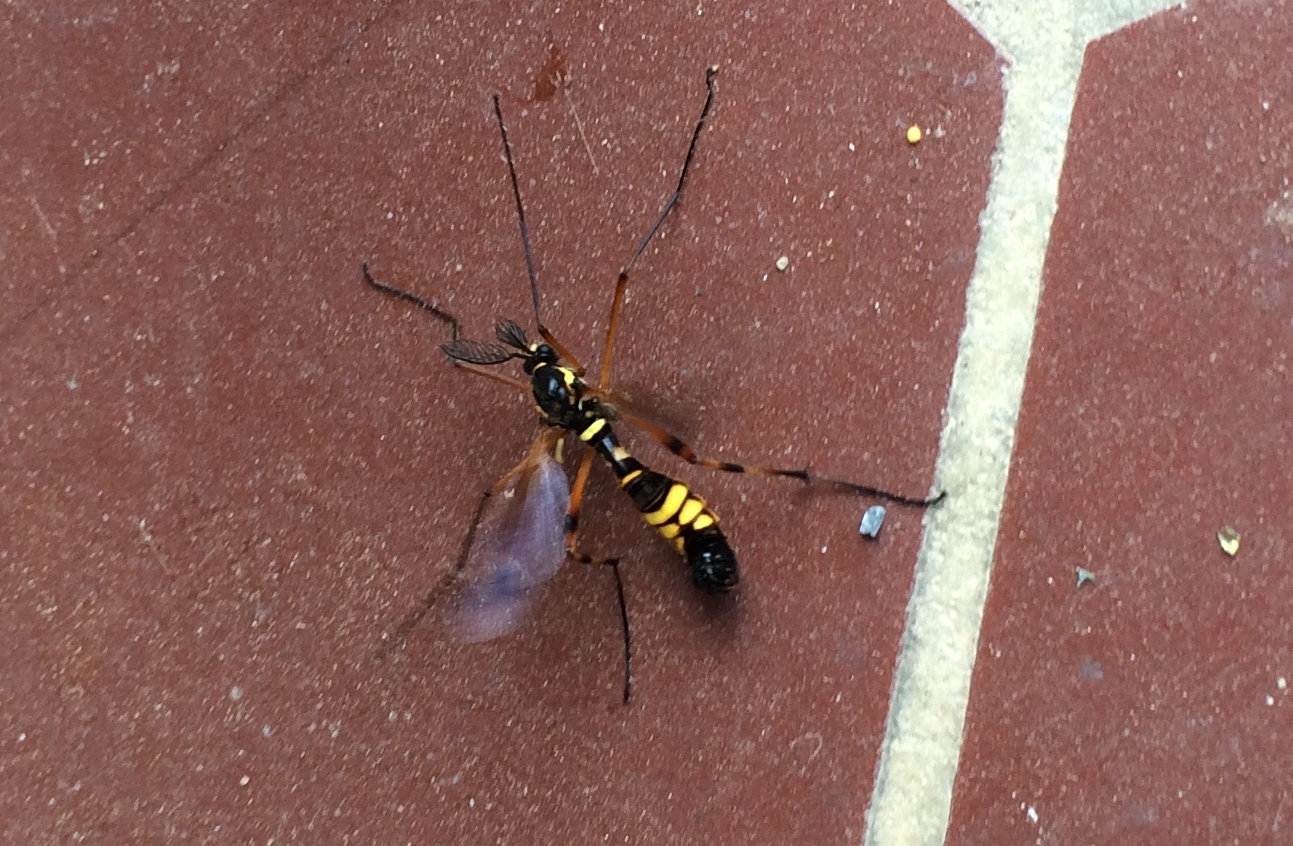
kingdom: Animalia
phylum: Arthropoda
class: Insecta
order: Diptera
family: Tipulidae
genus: Ctenophora
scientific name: Ctenophora festiva
